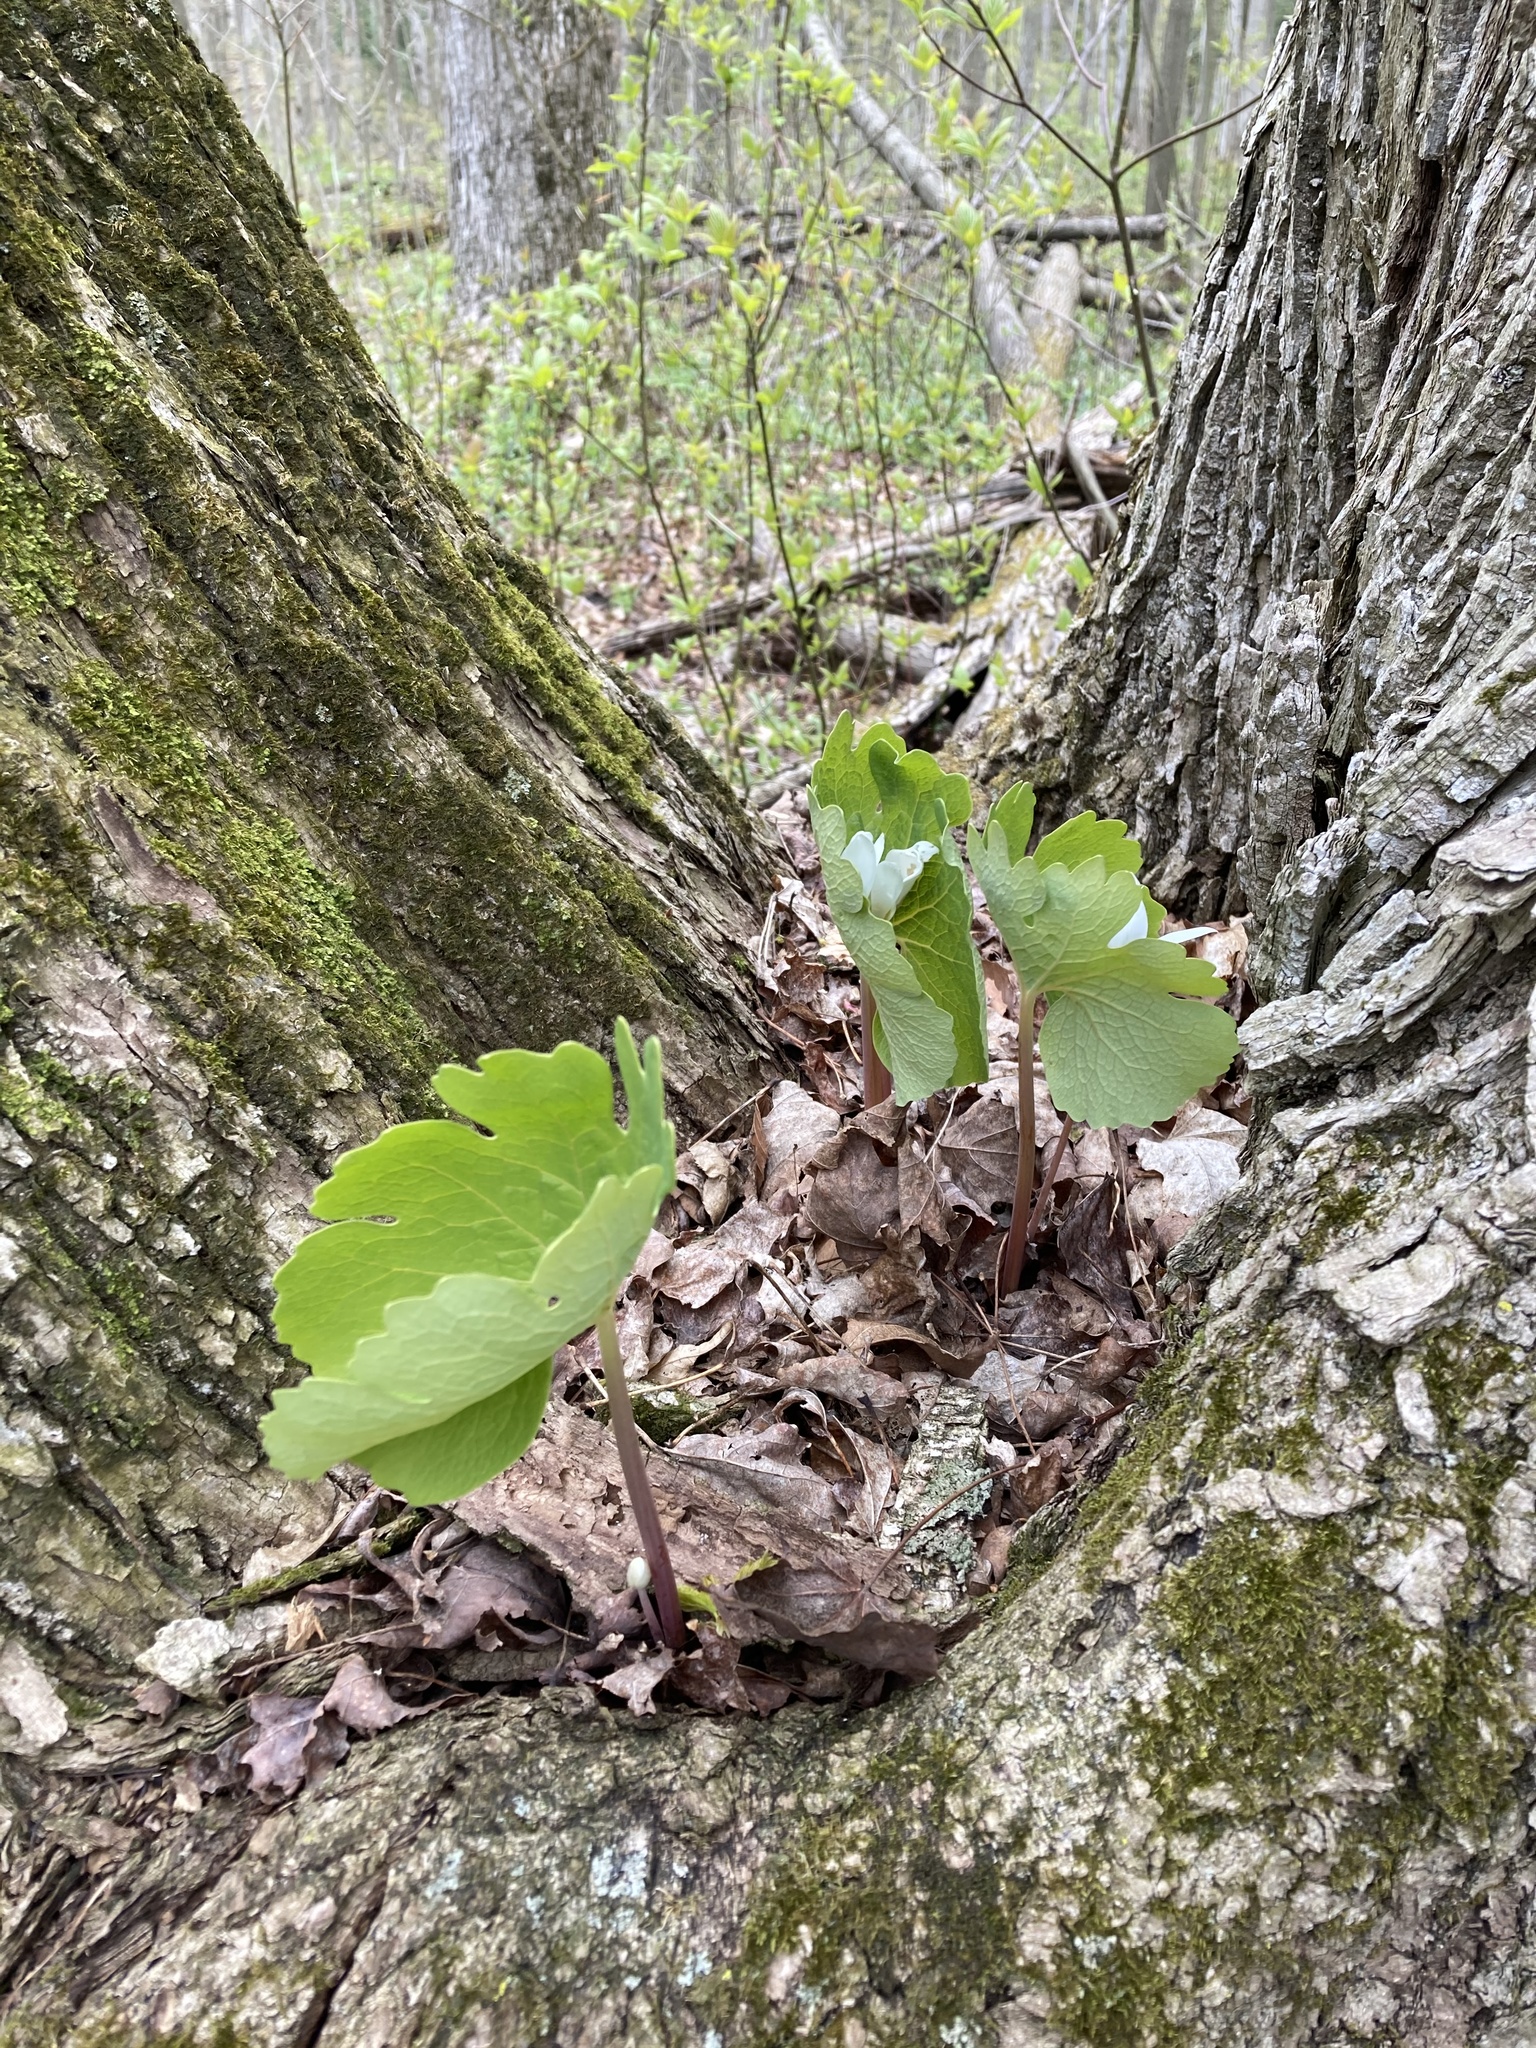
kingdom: Plantae
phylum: Tracheophyta
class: Magnoliopsida
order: Ranunculales
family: Papaveraceae
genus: Sanguinaria
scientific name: Sanguinaria canadensis
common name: Bloodroot
